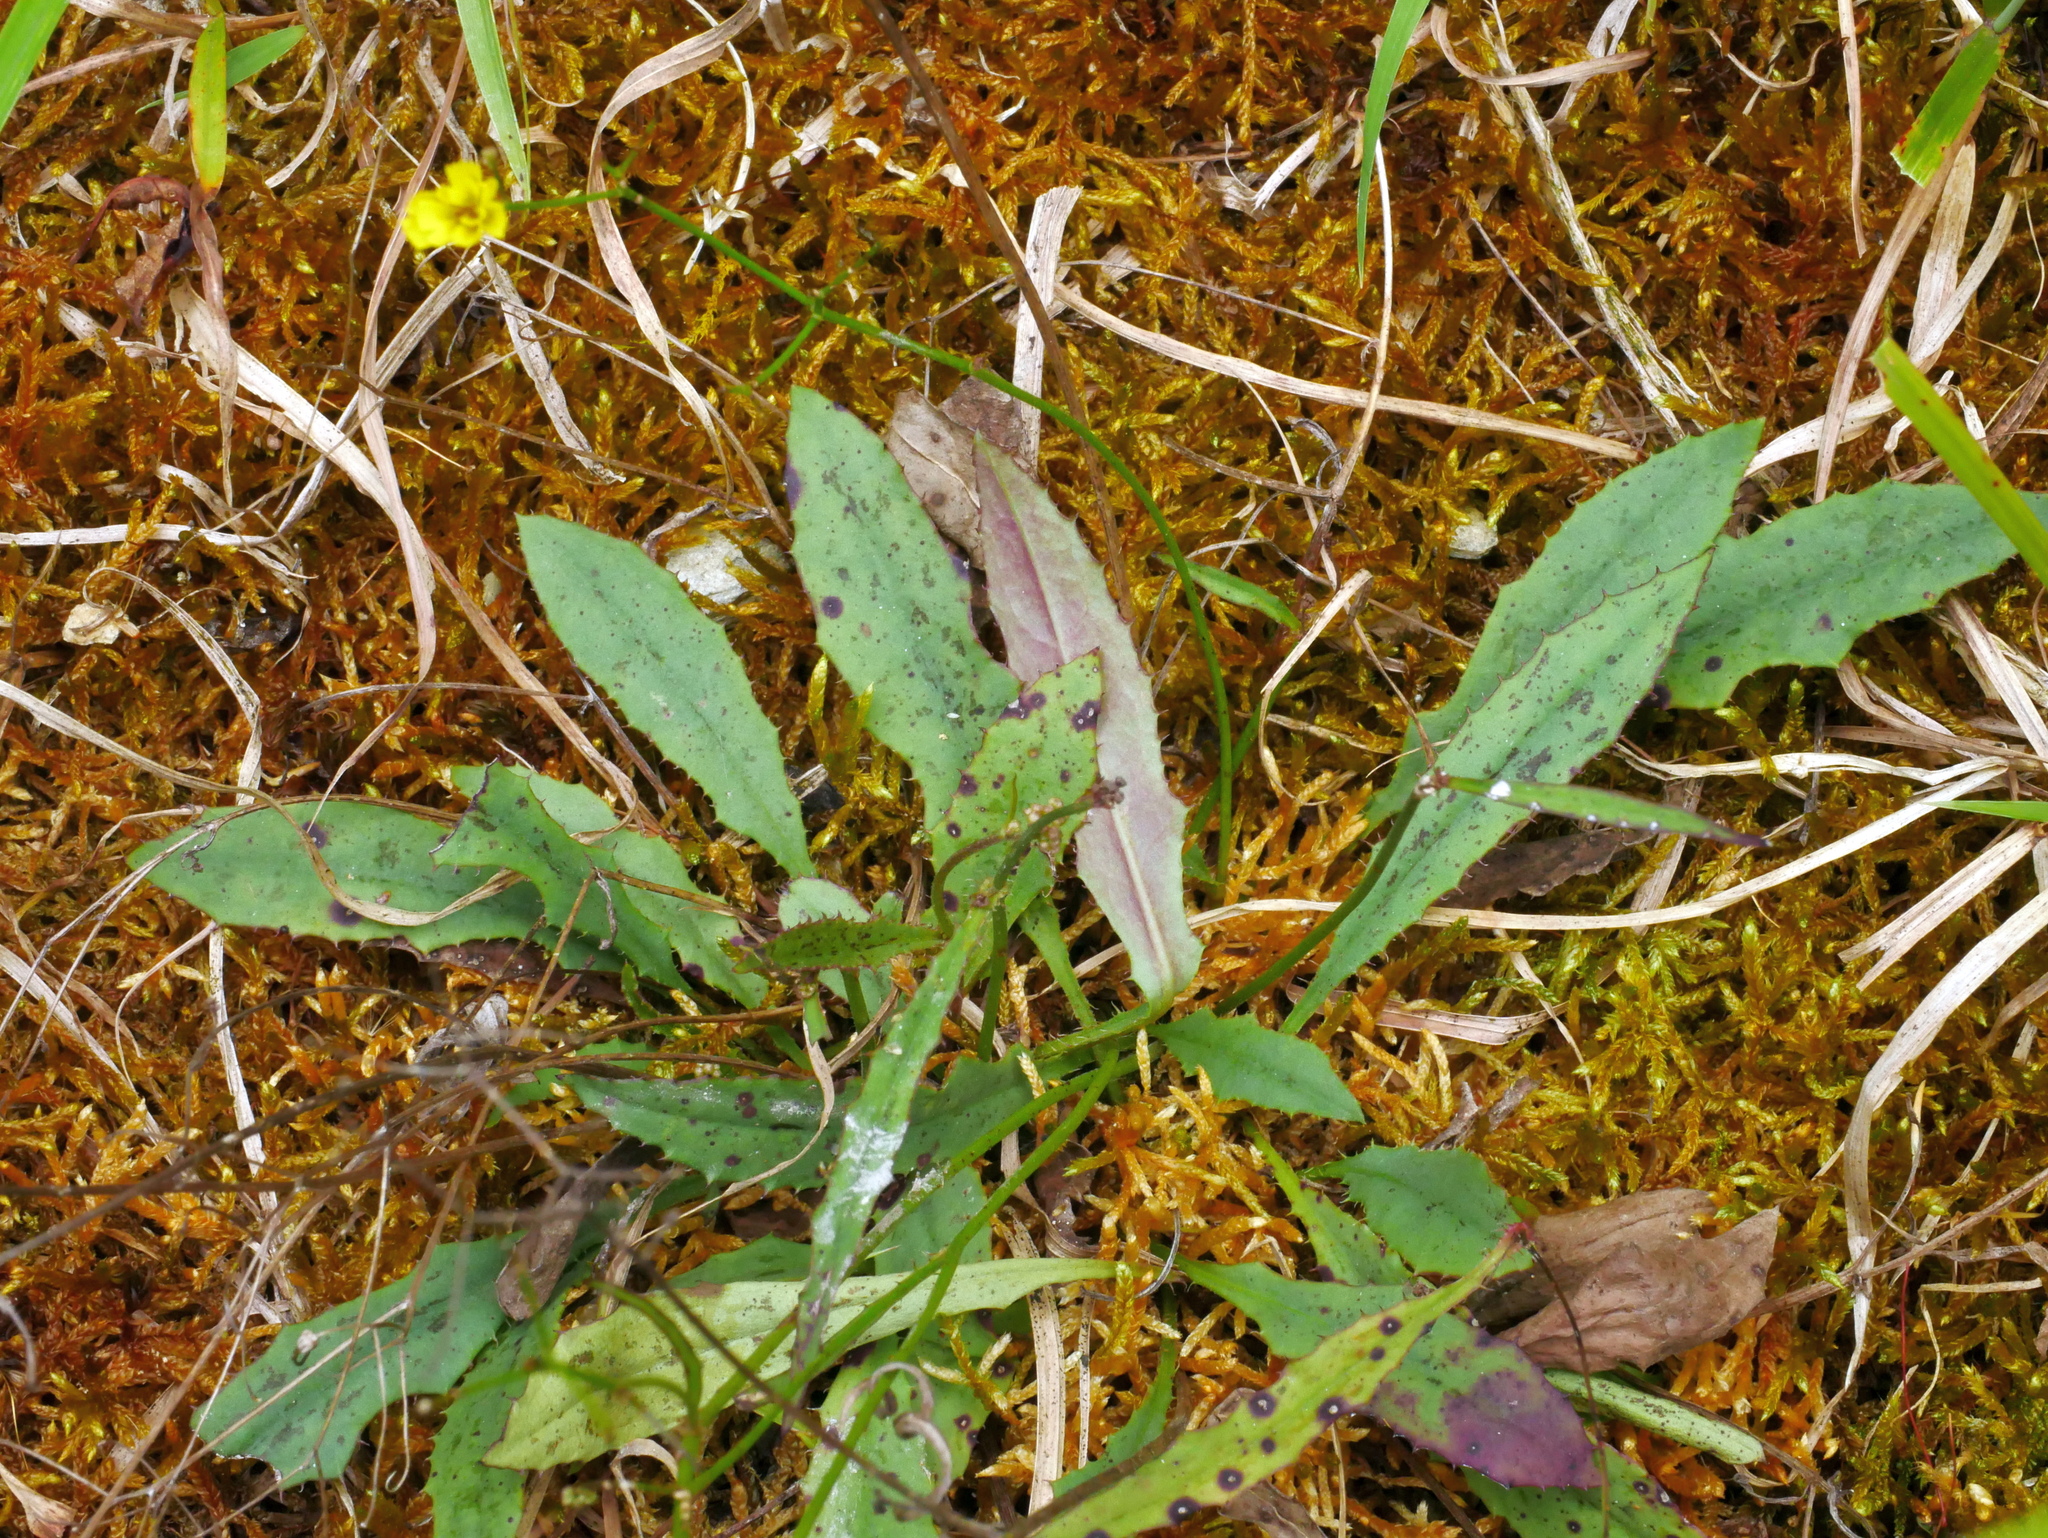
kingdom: Plantae
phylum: Tracheophyta
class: Magnoliopsida
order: Asterales
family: Asteraceae
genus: Ixeridium
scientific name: Ixeridium laevigatum
